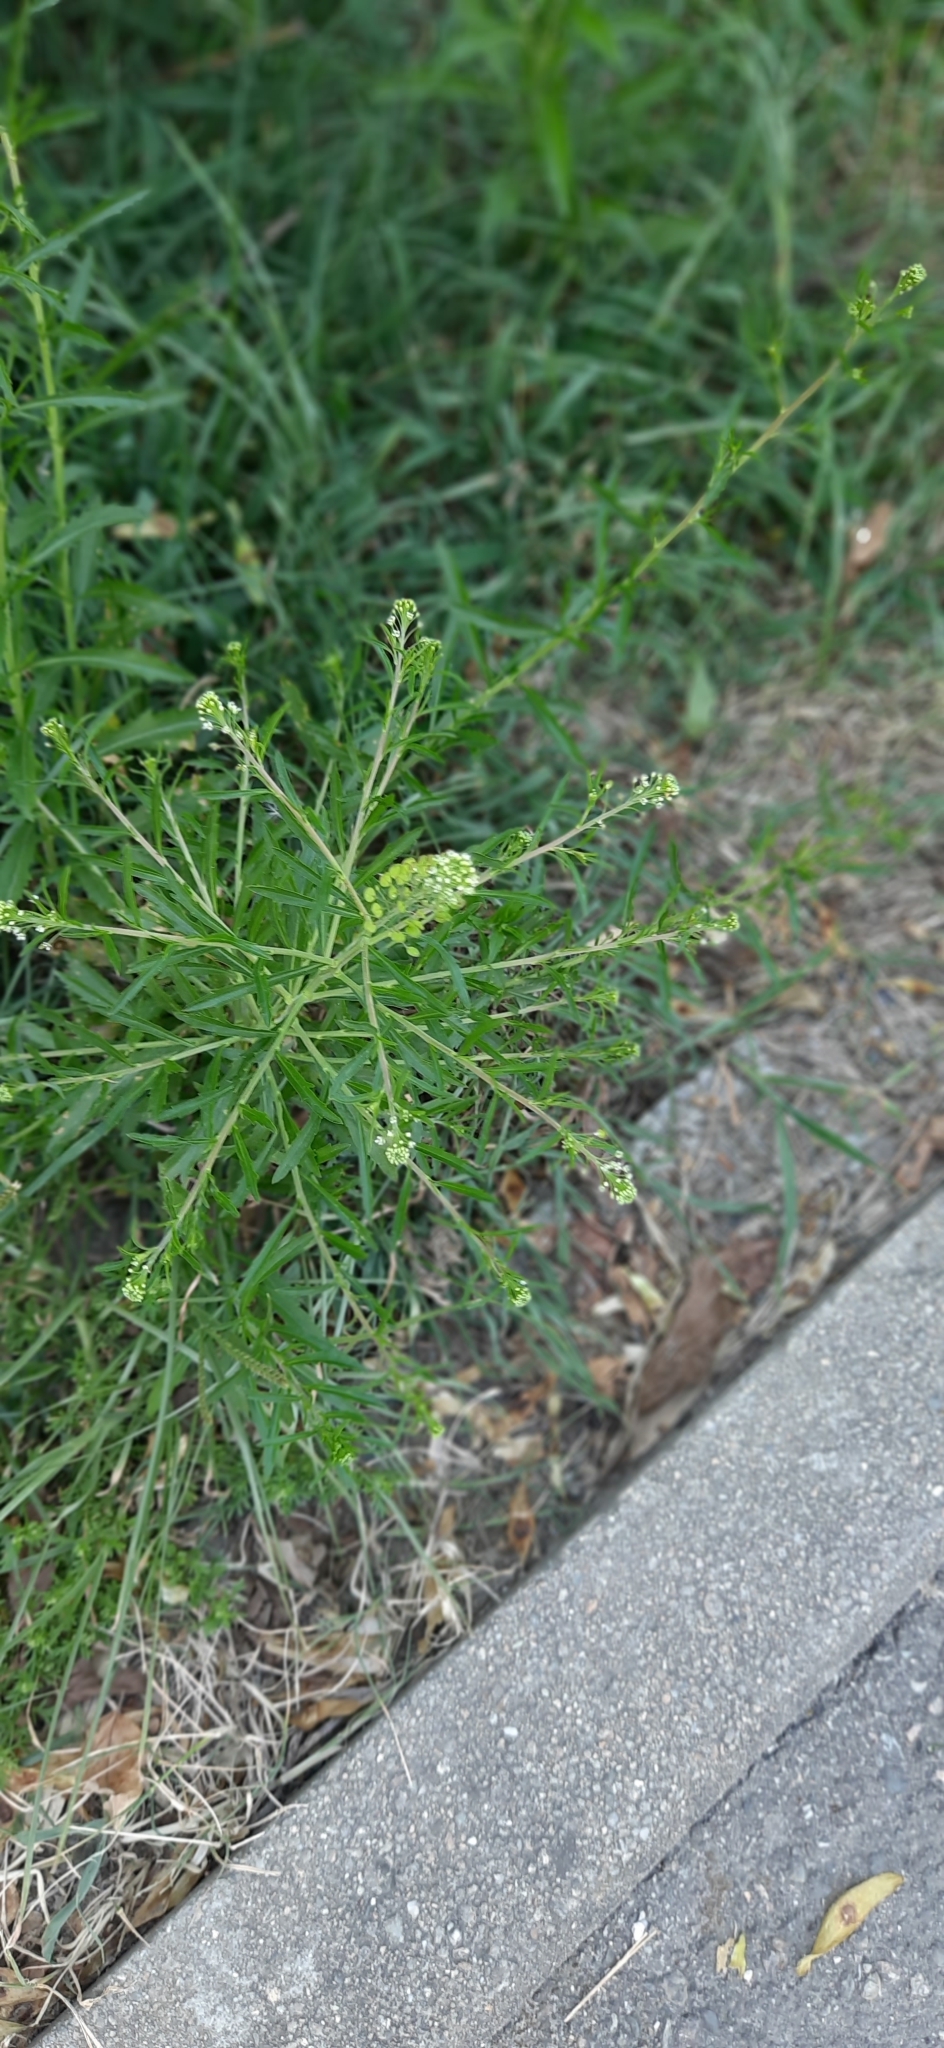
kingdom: Plantae
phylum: Tracheophyta
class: Magnoliopsida
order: Brassicales
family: Brassicaceae
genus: Lepidium
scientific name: Lepidium virginicum
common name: Least pepperwort
